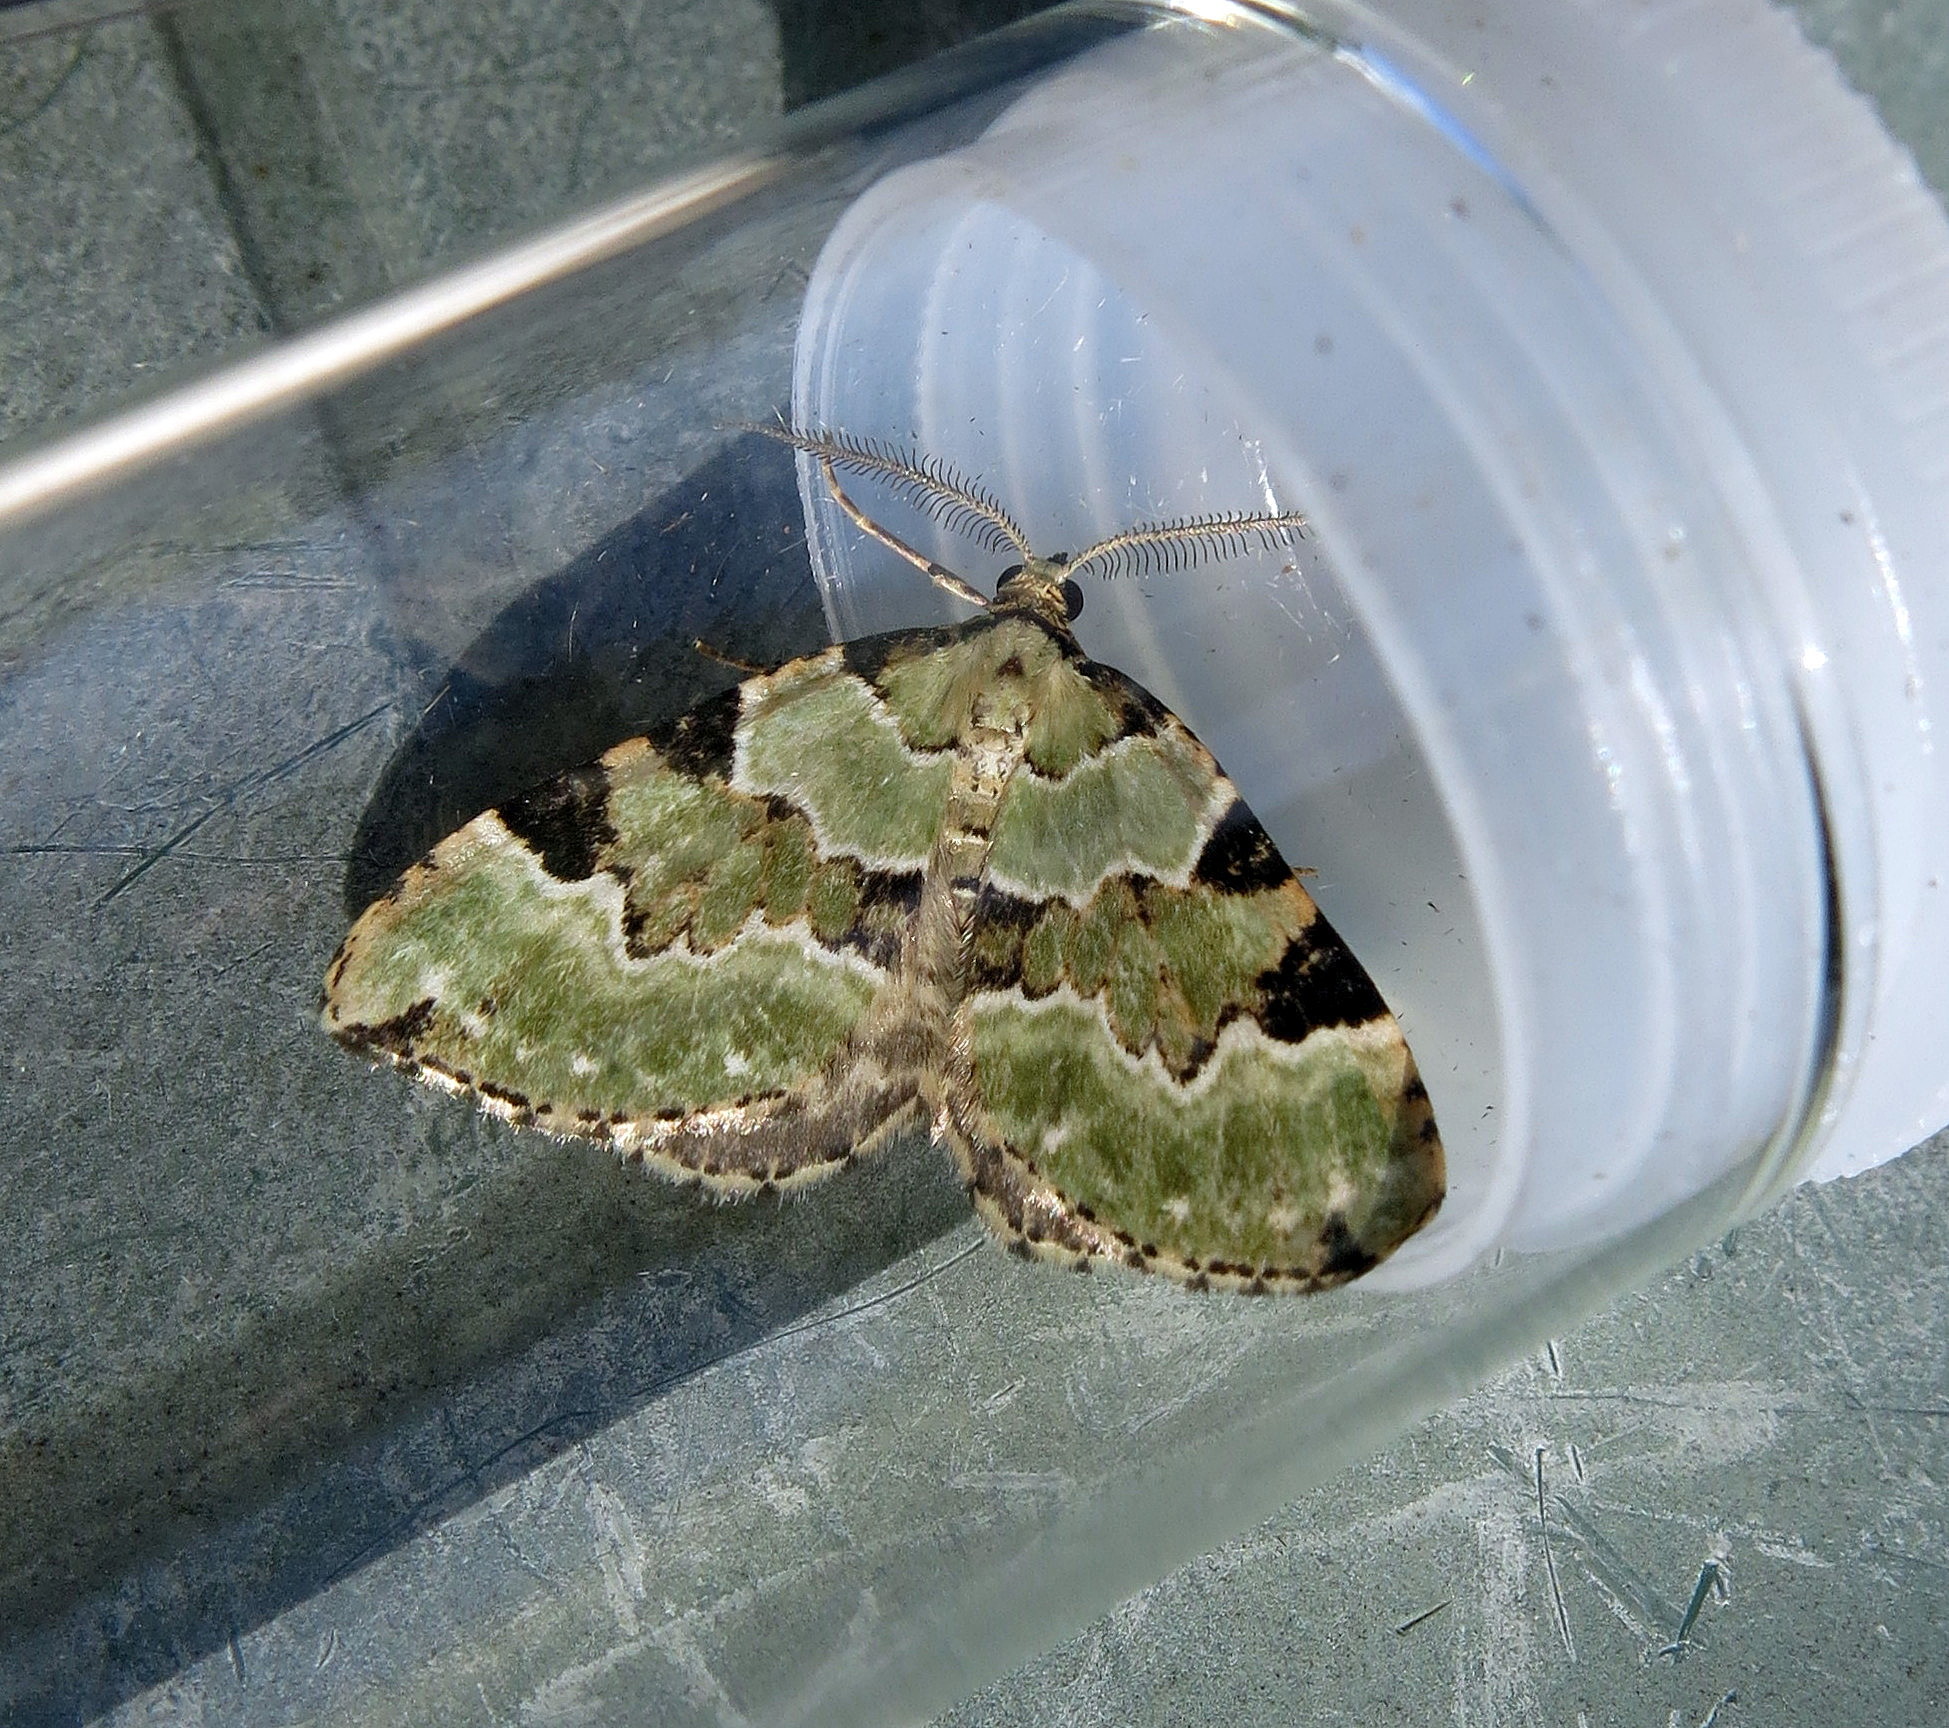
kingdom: Animalia
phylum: Arthropoda
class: Insecta
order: Lepidoptera
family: Geometridae
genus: Colostygia
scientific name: Colostygia pectinataria
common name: Green carpet
